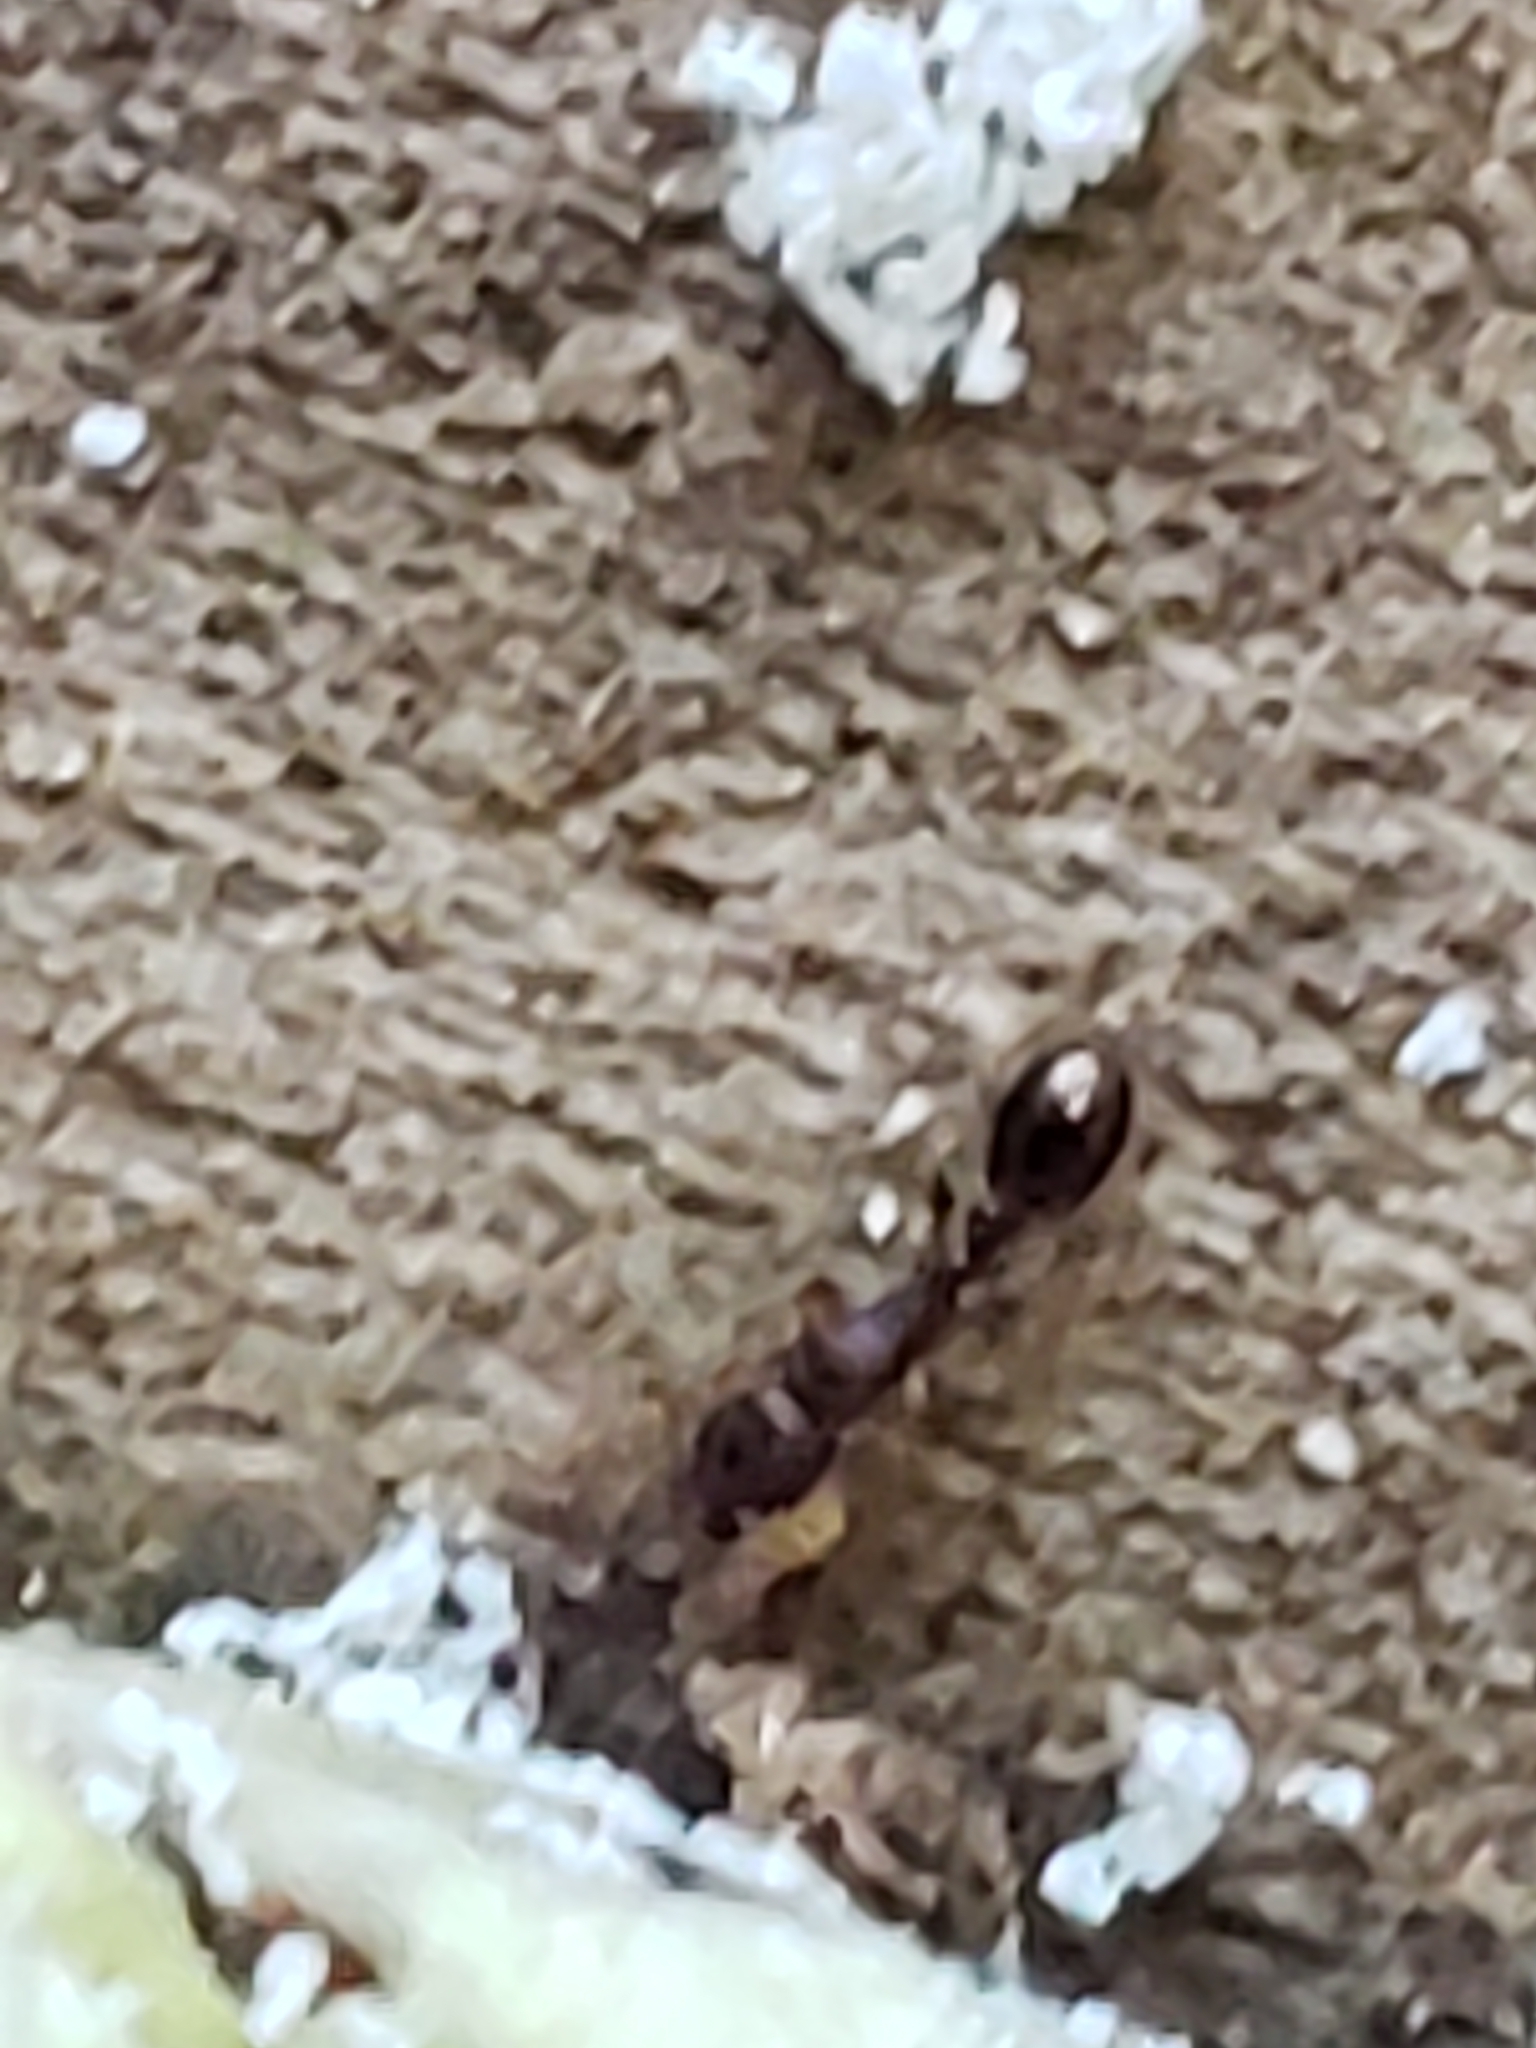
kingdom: Animalia
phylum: Arthropoda
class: Insecta
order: Hymenoptera
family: Formicidae
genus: Vollenhovia
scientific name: Vollenhovia emeryi
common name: Ant
